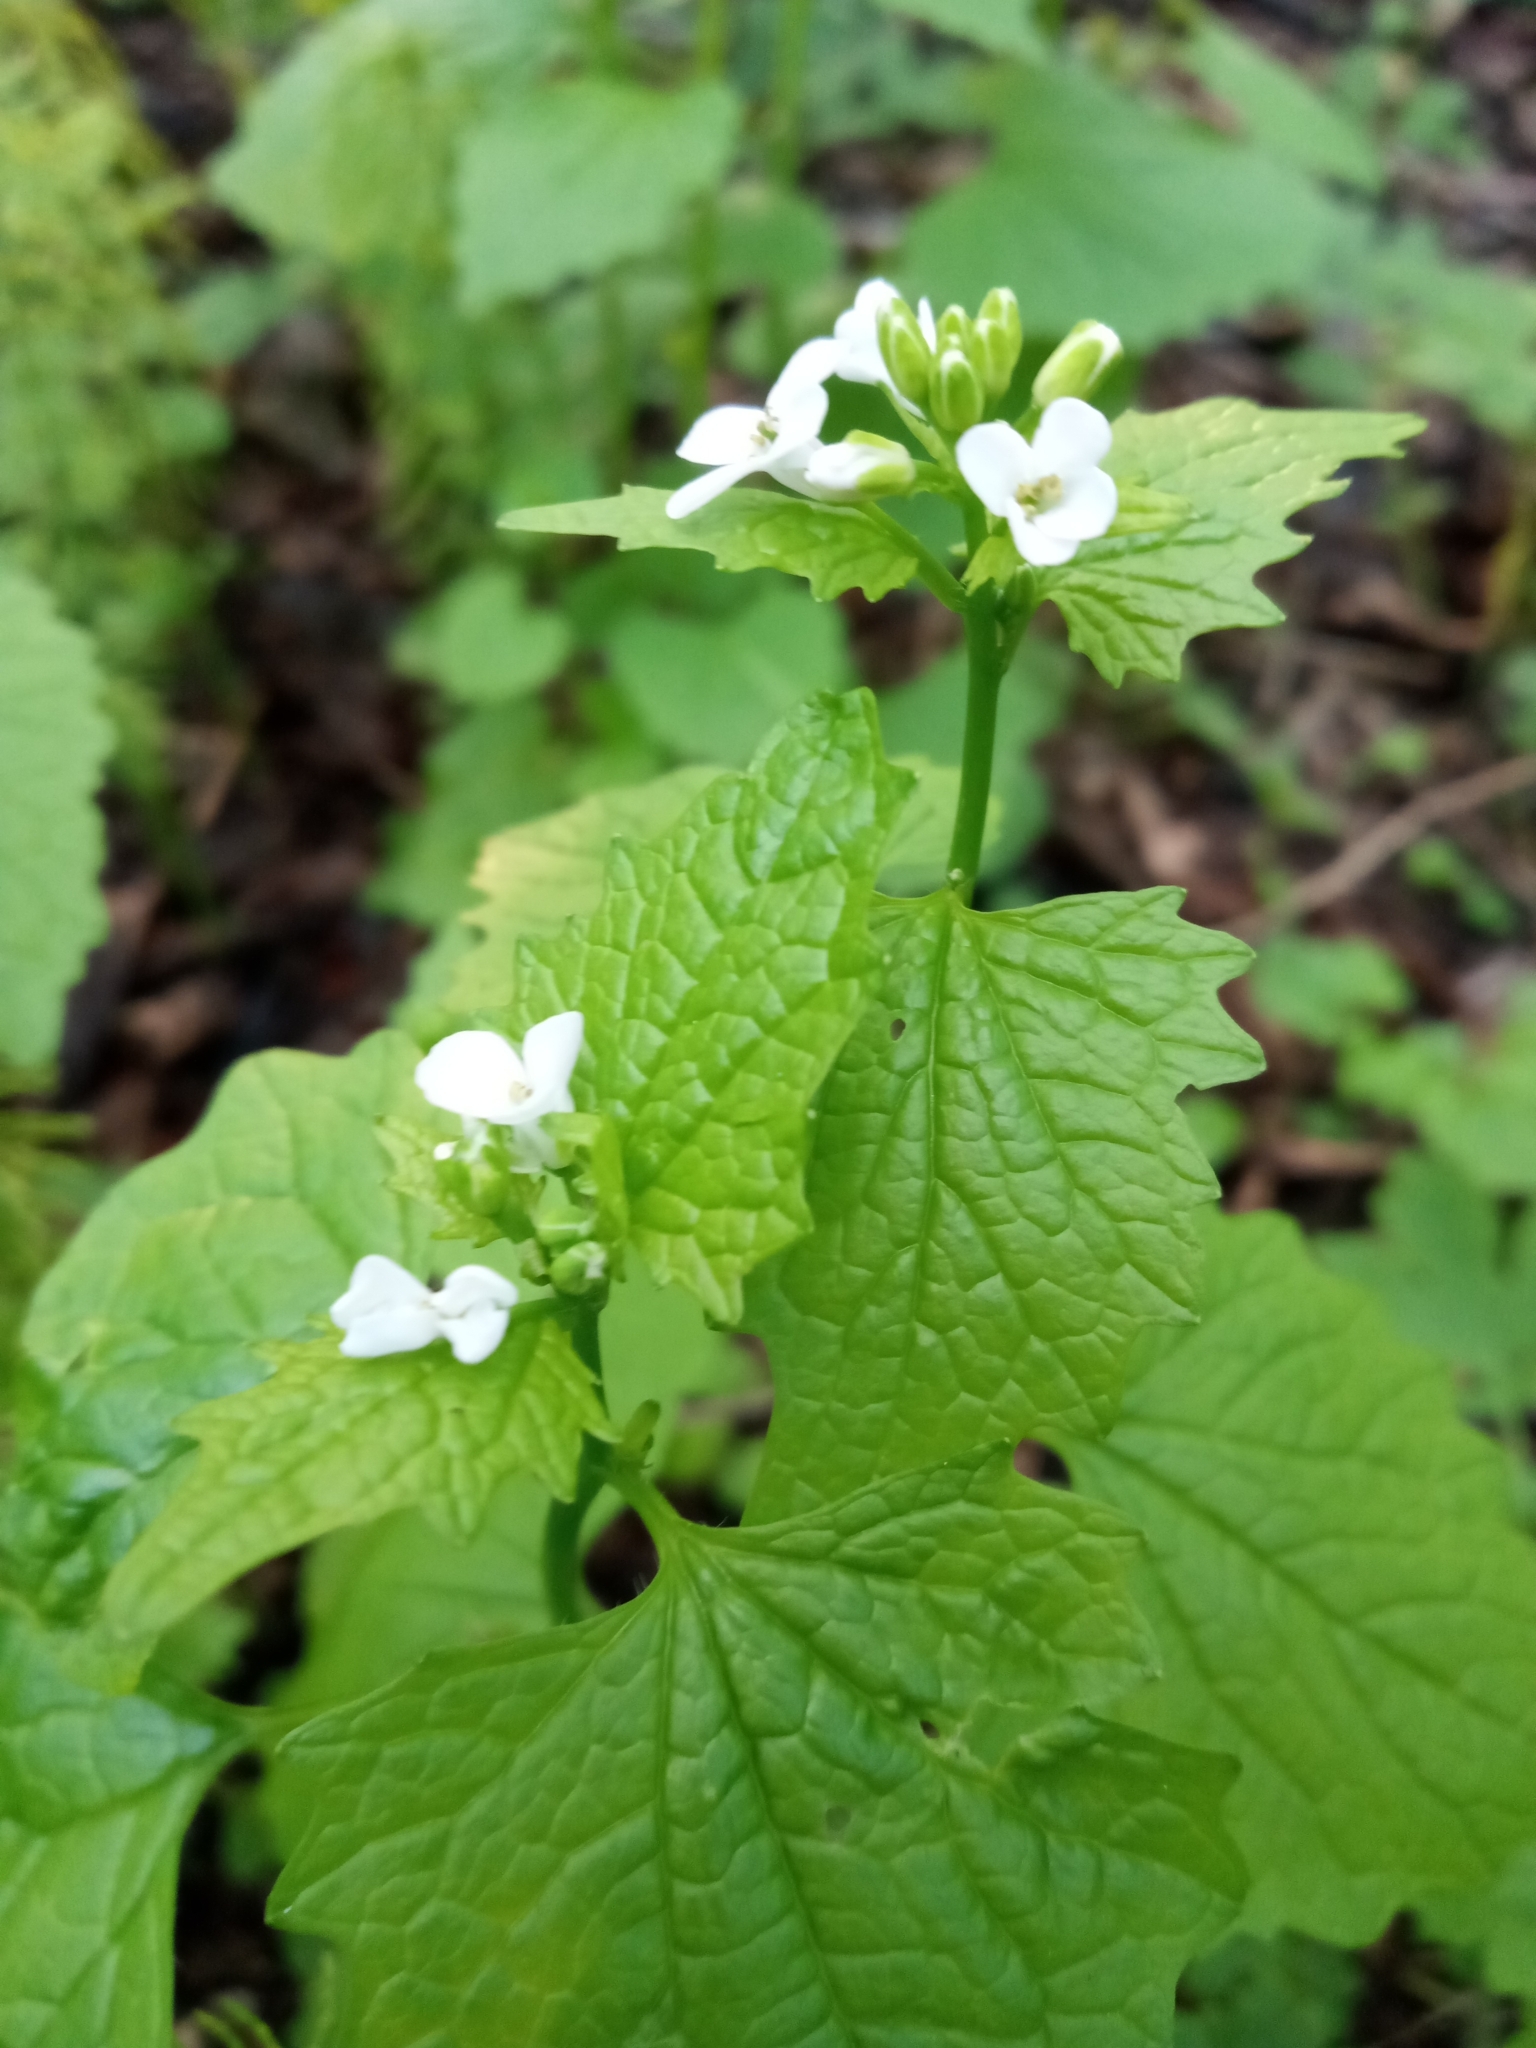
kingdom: Plantae
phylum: Tracheophyta
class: Magnoliopsida
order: Brassicales
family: Brassicaceae
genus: Alliaria
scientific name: Alliaria petiolata
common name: Garlic mustard
